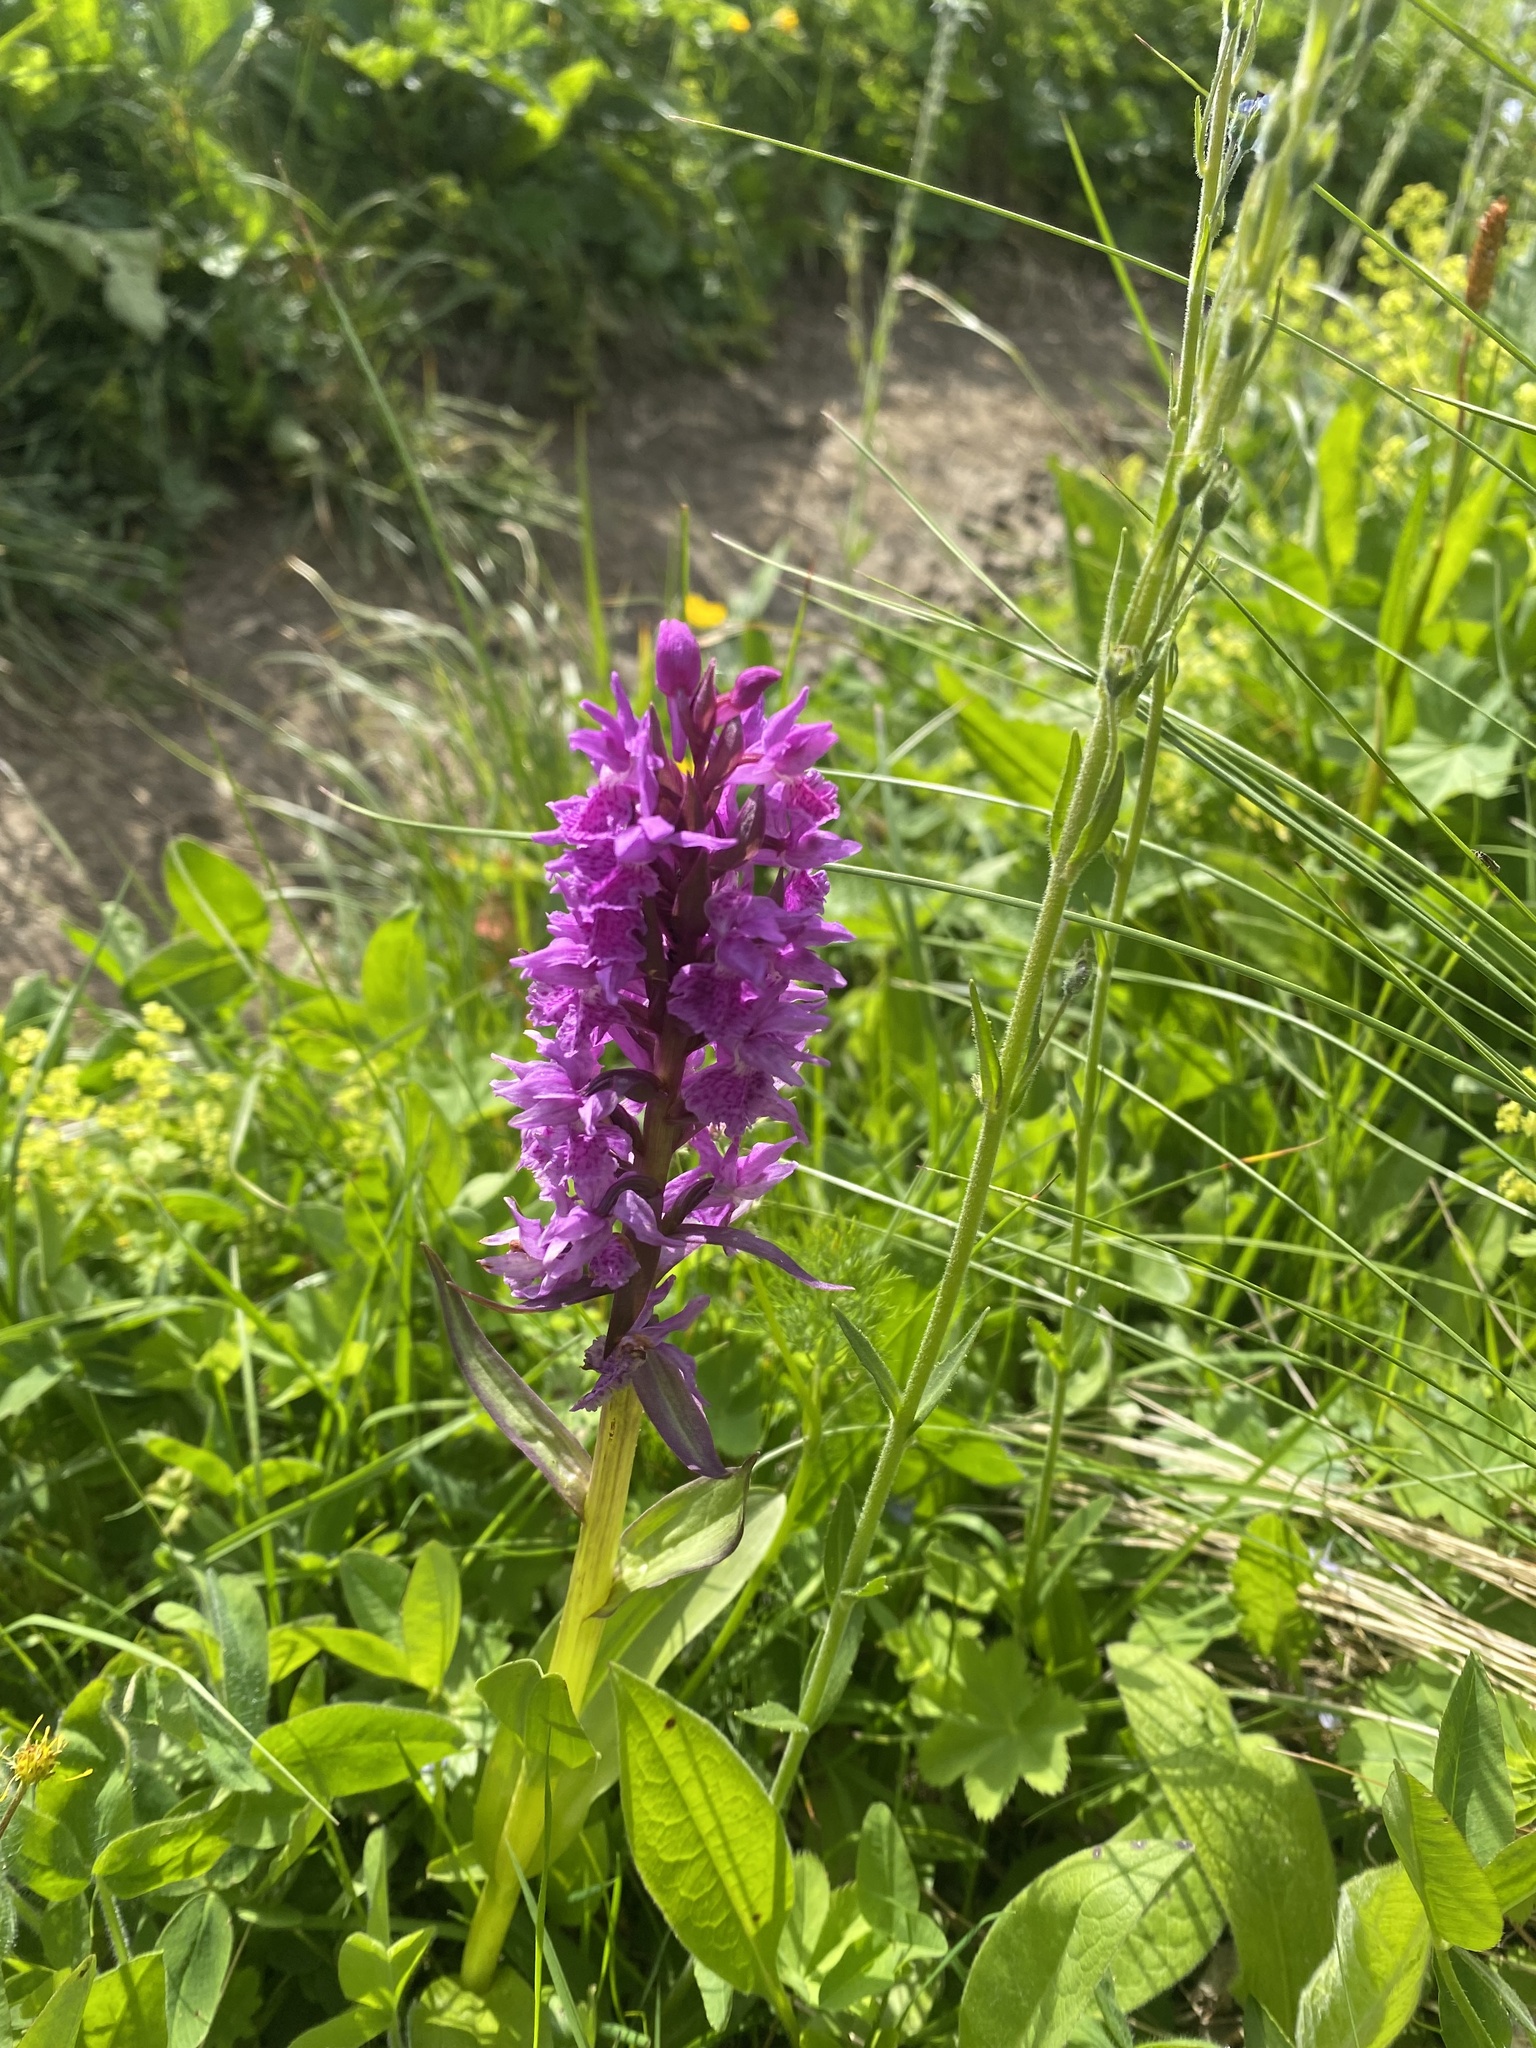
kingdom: Plantae
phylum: Tracheophyta
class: Liliopsida
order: Asparagales
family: Orchidaceae
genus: Dactylorhiza
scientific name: Dactylorhiza euxina
